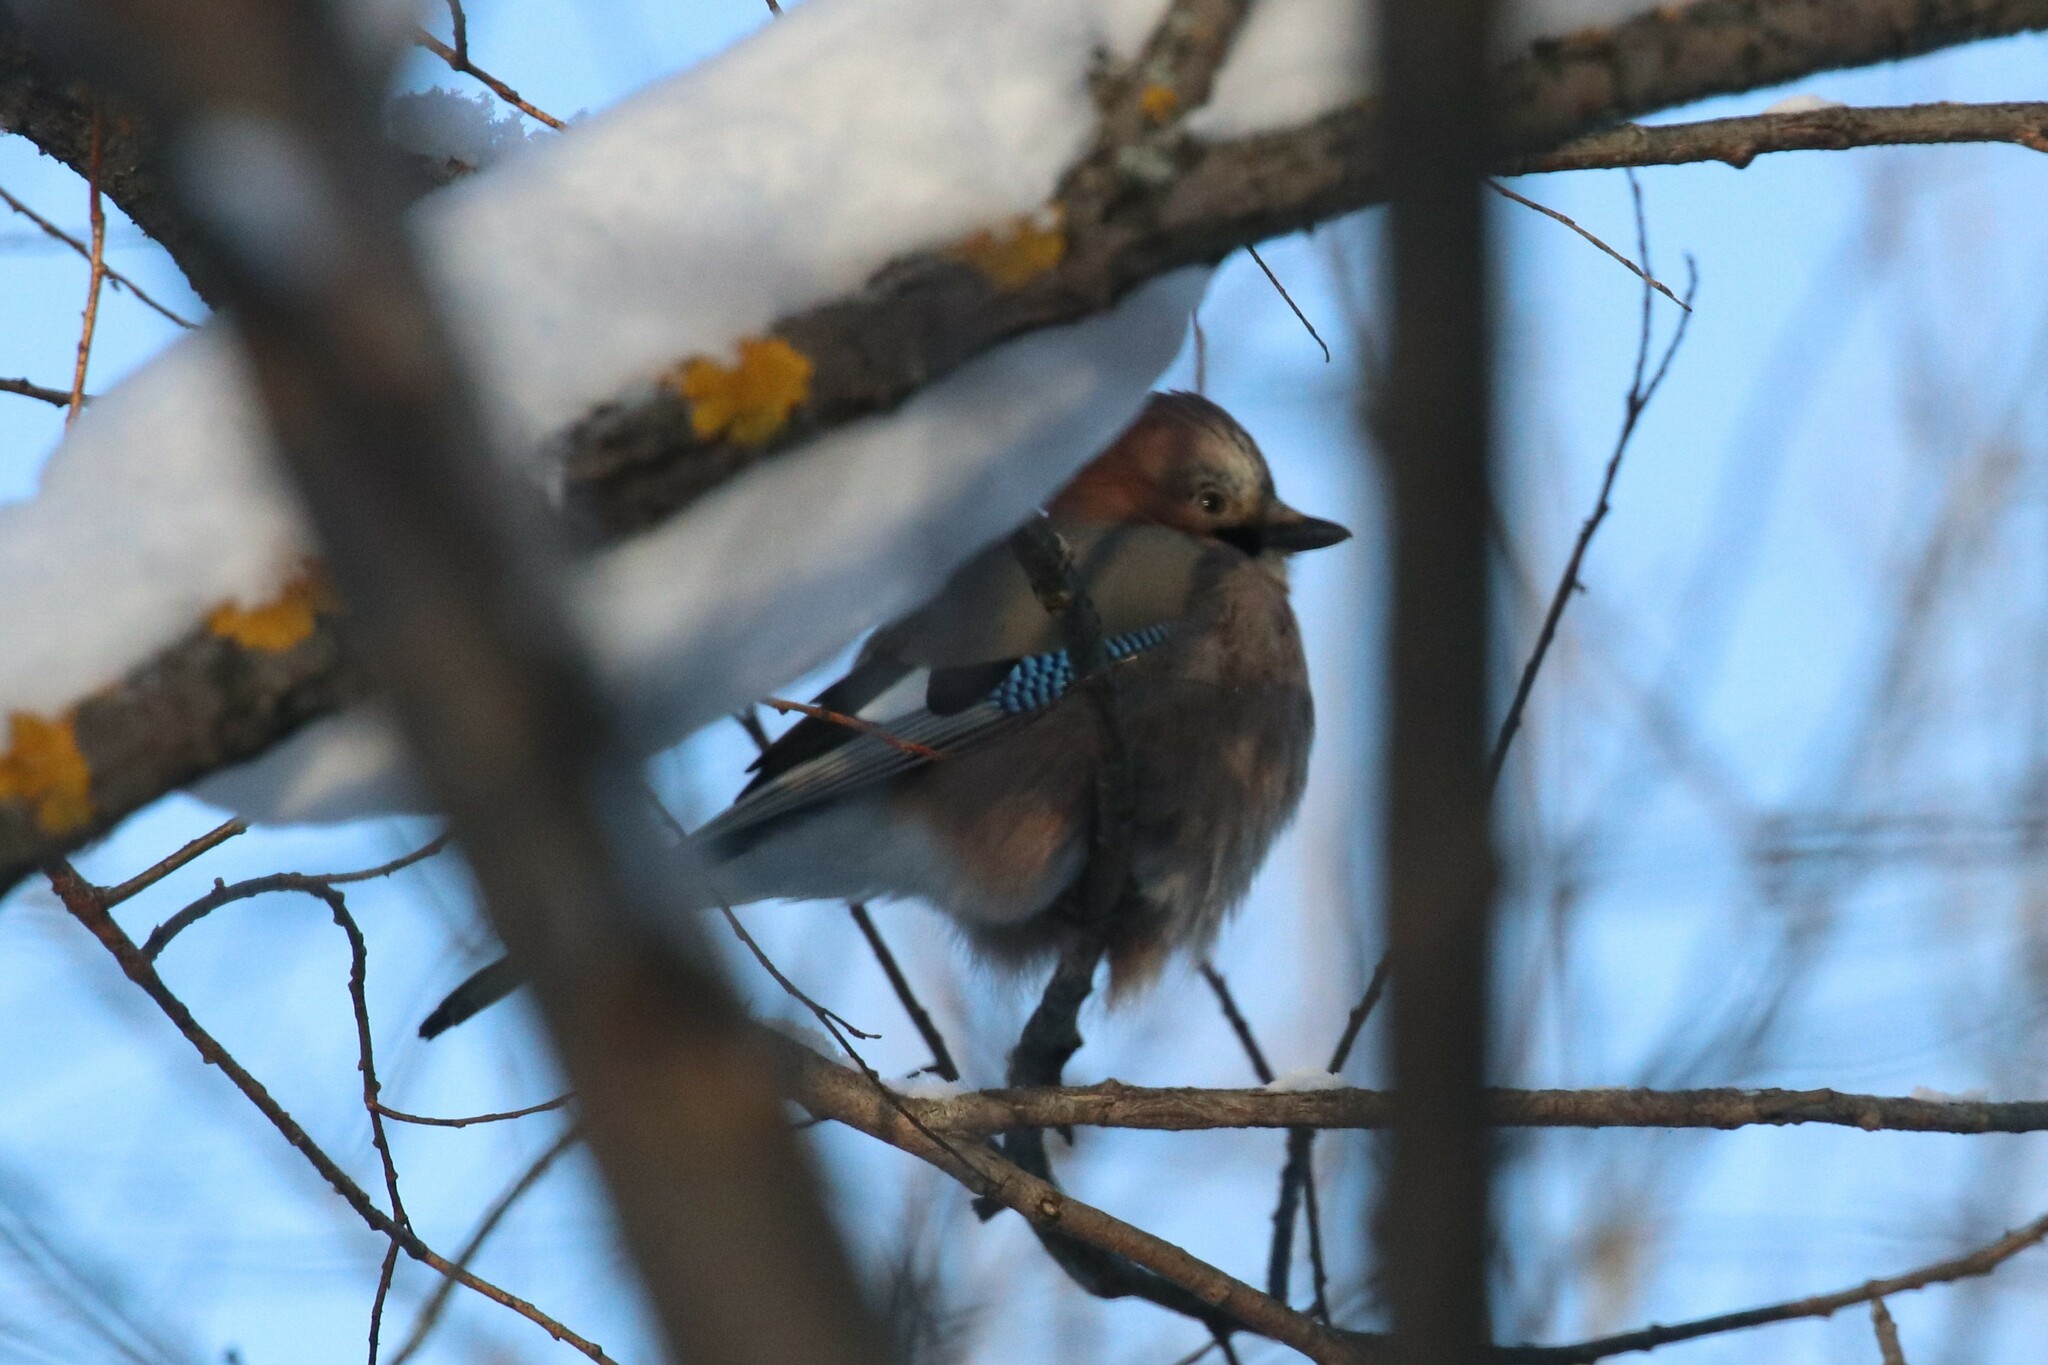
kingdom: Animalia
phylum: Chordata
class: Aves
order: Passeriformes
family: Corvidae
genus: Garrulus
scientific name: Garrulus glandarius
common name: Eurasian jay
